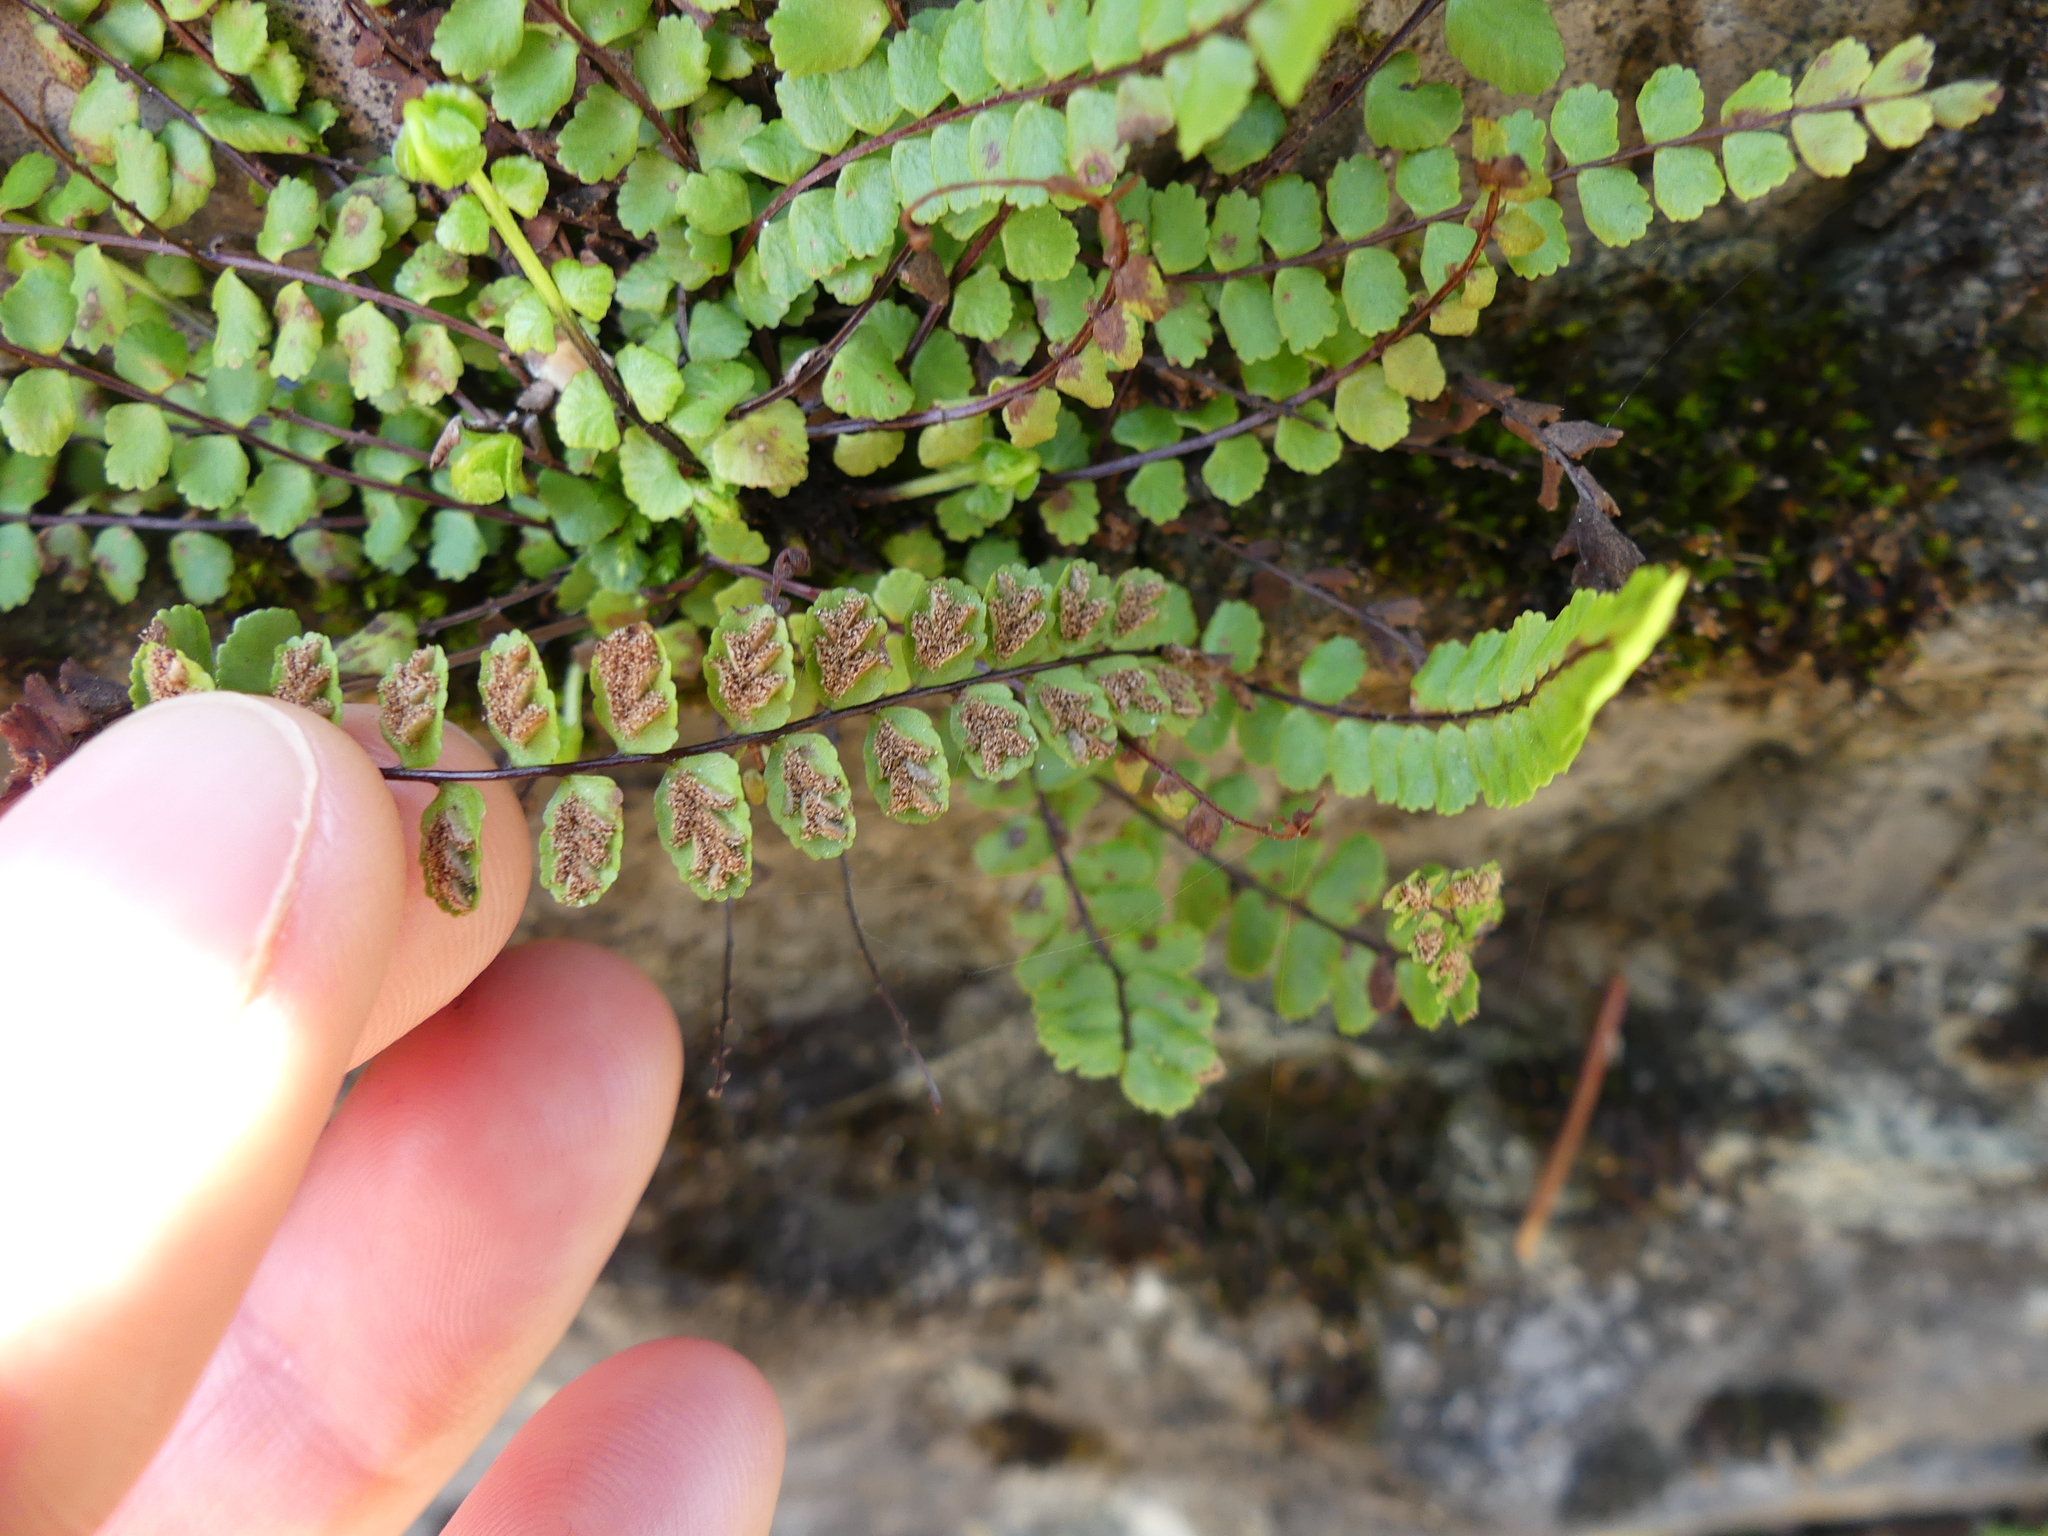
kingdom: Plantae
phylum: Tracheophyta
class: Polypodiopsida
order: Polypodiales
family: Aspleniaceae
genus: Asplenium
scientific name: Asplenium trichomanes
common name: Maidenhair spleenwort
